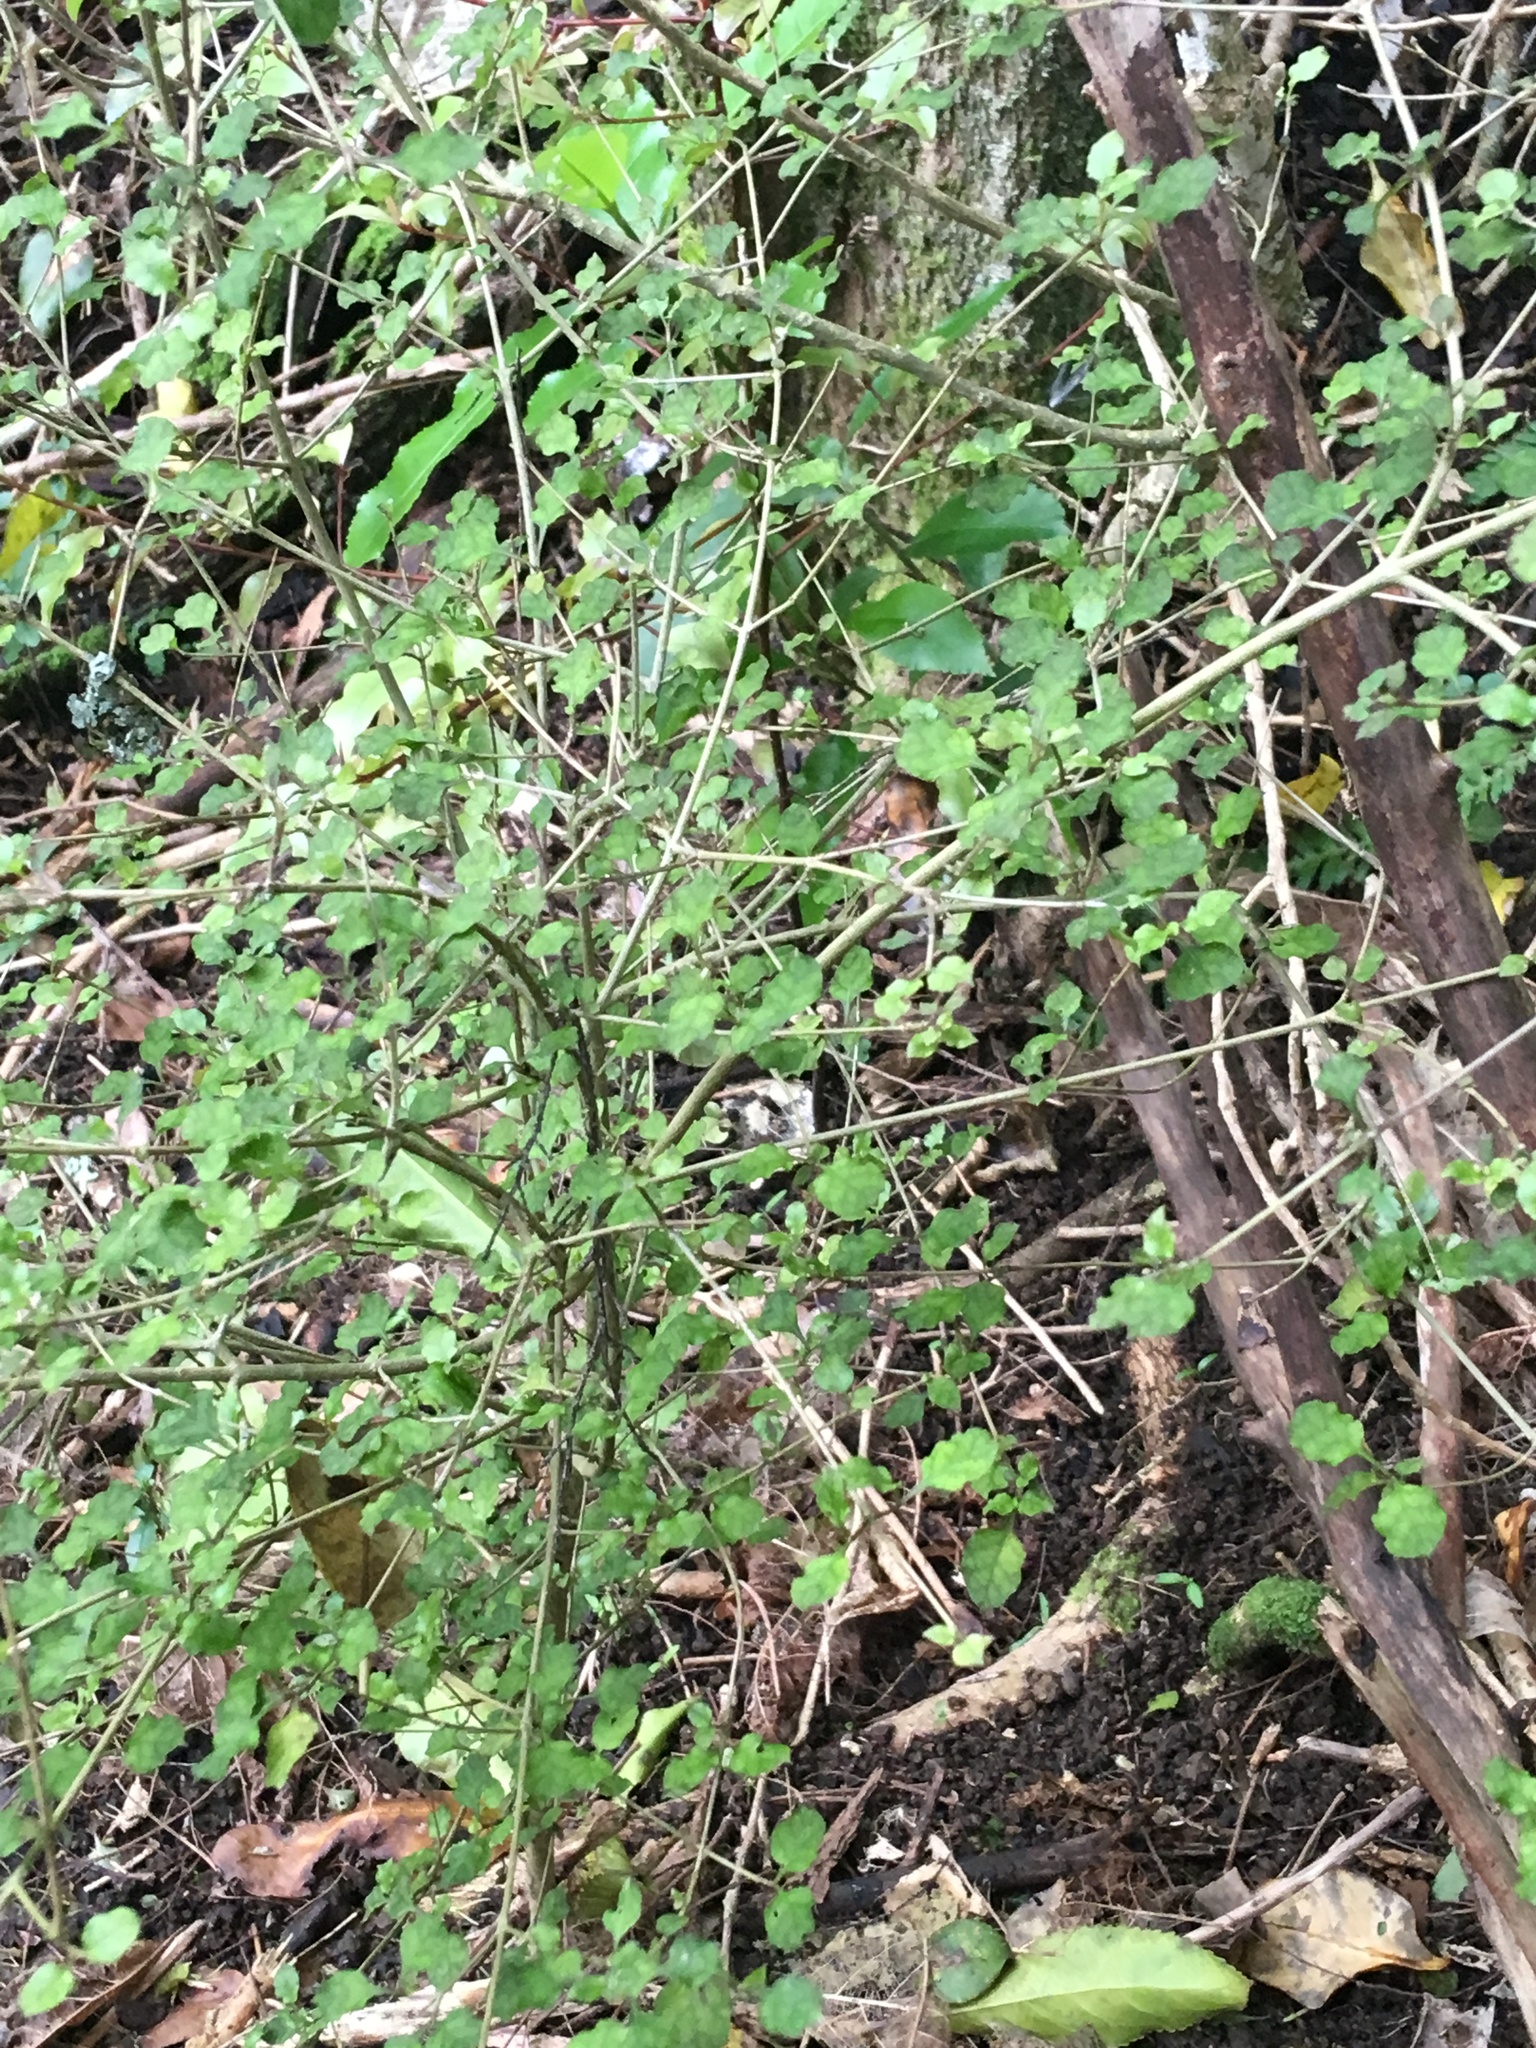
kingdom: Plantae
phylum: Tracheophyta
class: Magnoliopsida
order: Gentianales
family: Rubiaceae
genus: Coprosma
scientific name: Coprosma areolata
